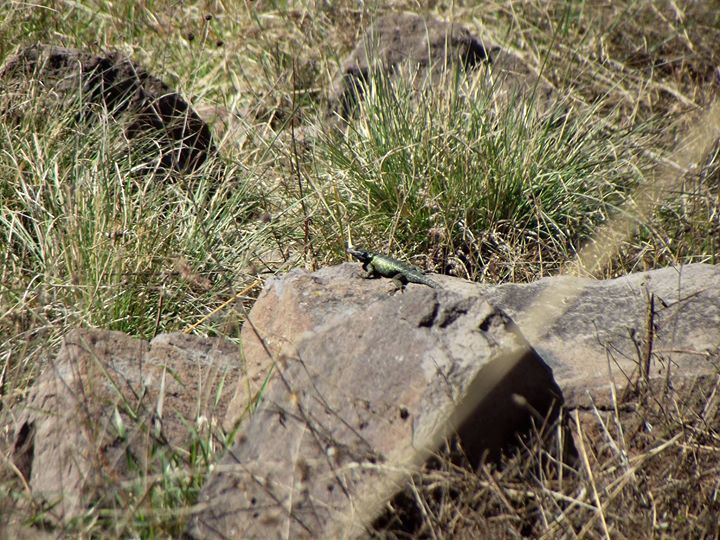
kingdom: Animalia
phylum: Chordata
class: Squamata
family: Phrynosomatidae
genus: Sceloporus
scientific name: Sceloporus torquatus
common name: Central plateau torquate lizard [melanogaster]
